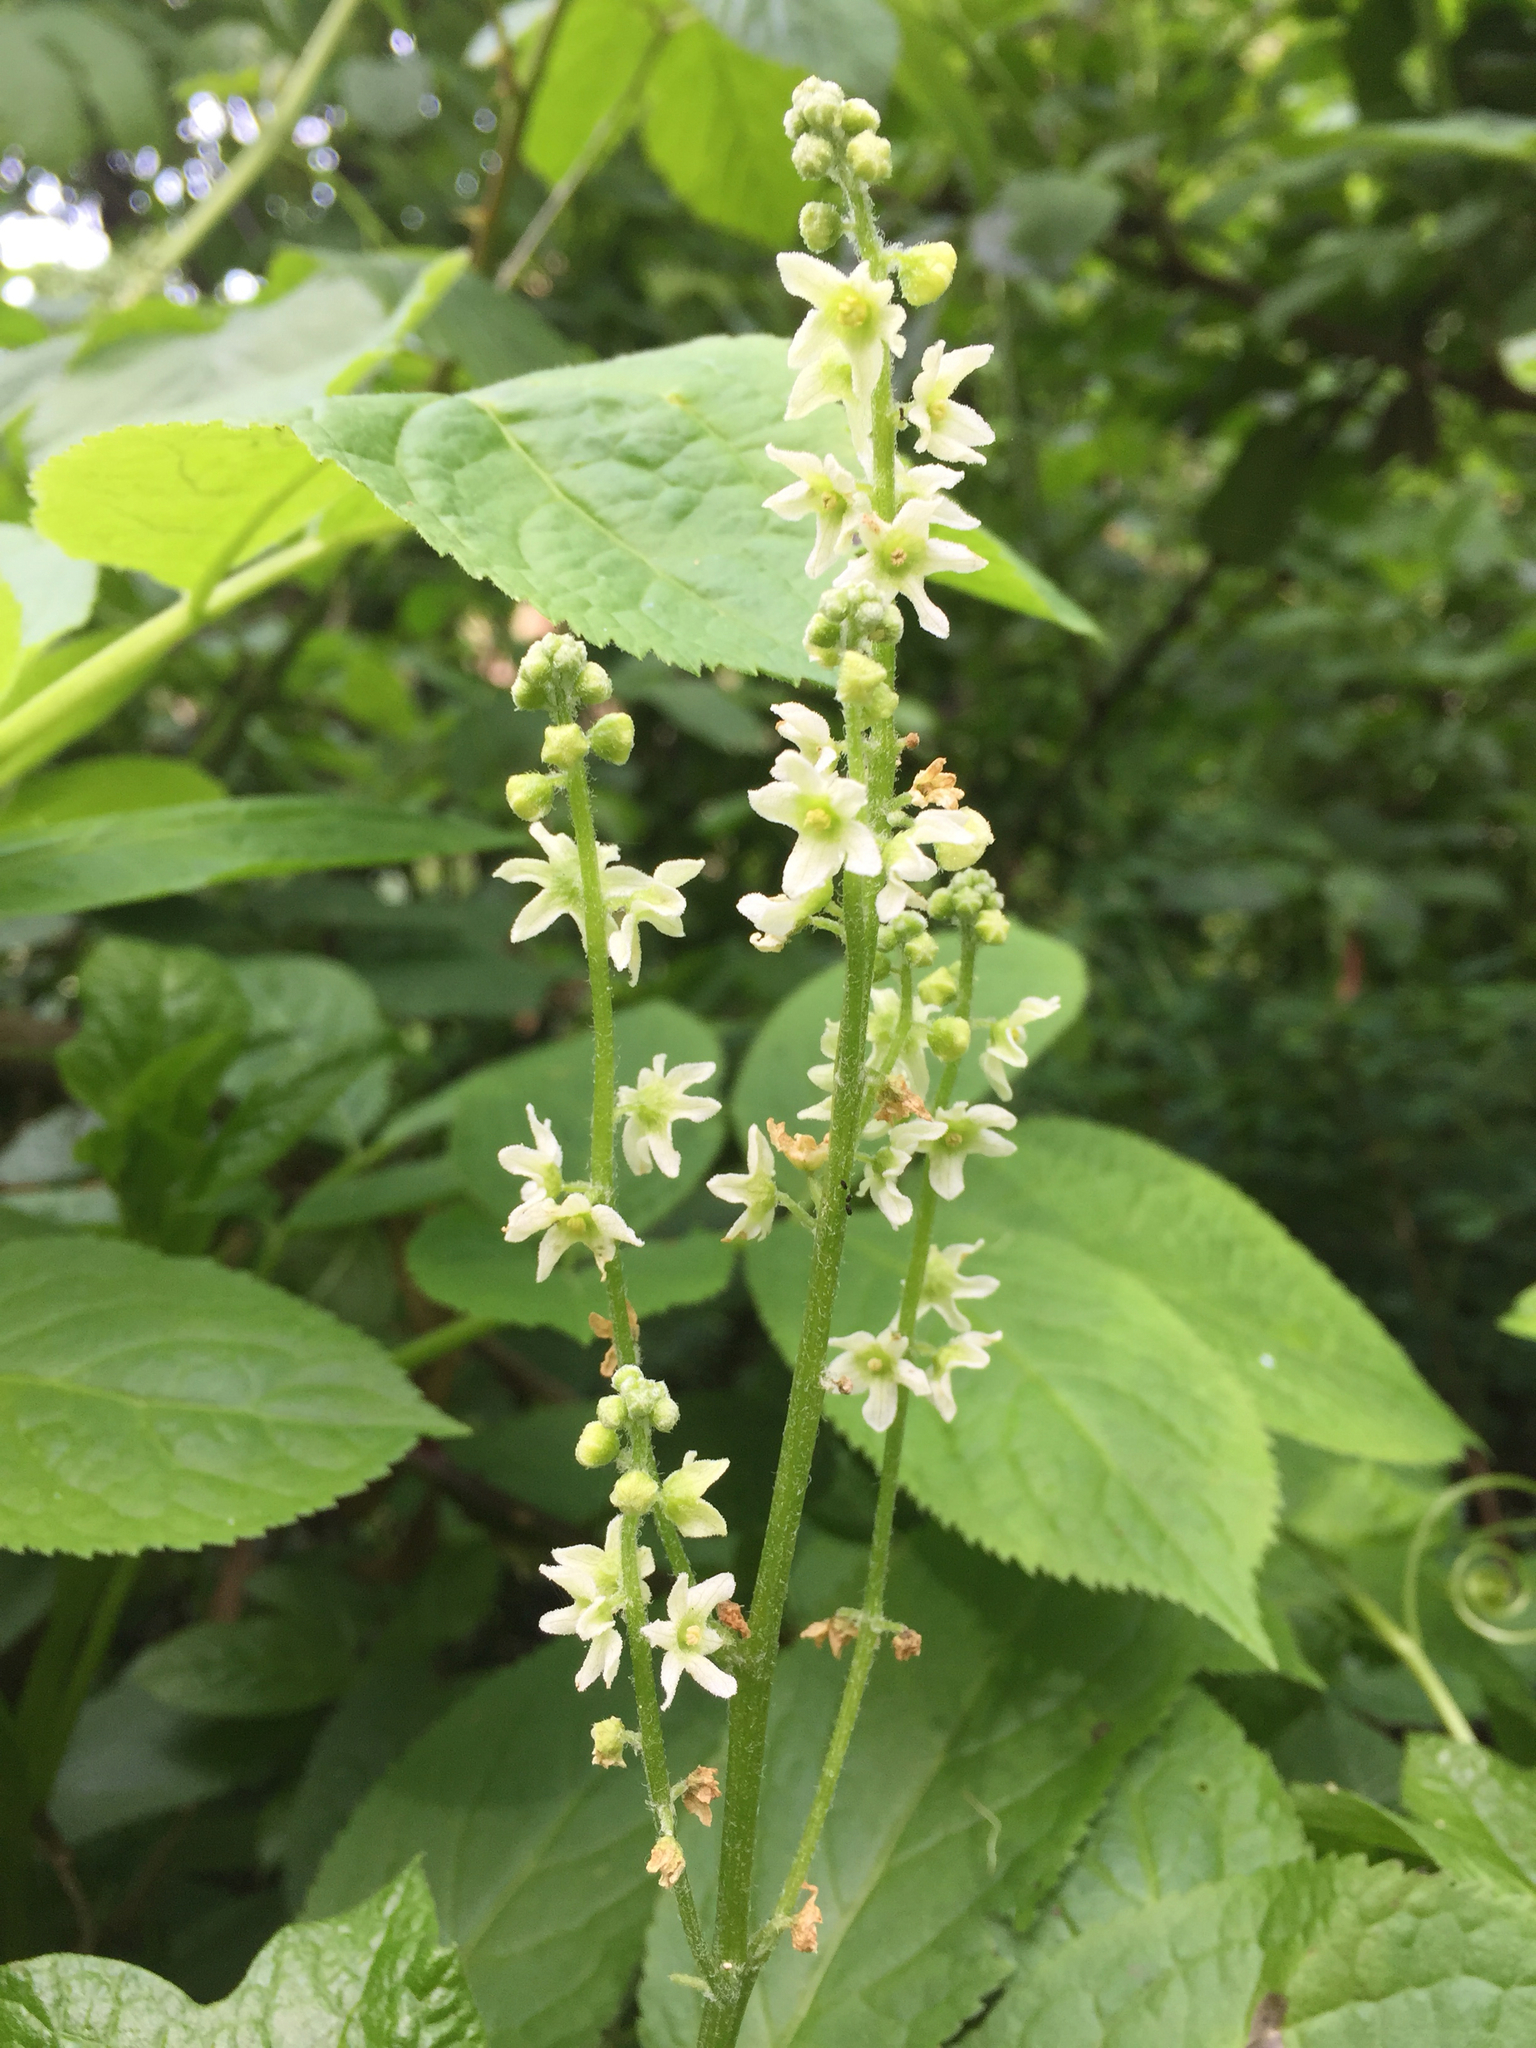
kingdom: Plantae
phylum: Tracheophyta
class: Magnoliopsida
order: Cucurbitales
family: Cucurbitaceae
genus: Marah
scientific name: Marah fabacea
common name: California manroot
